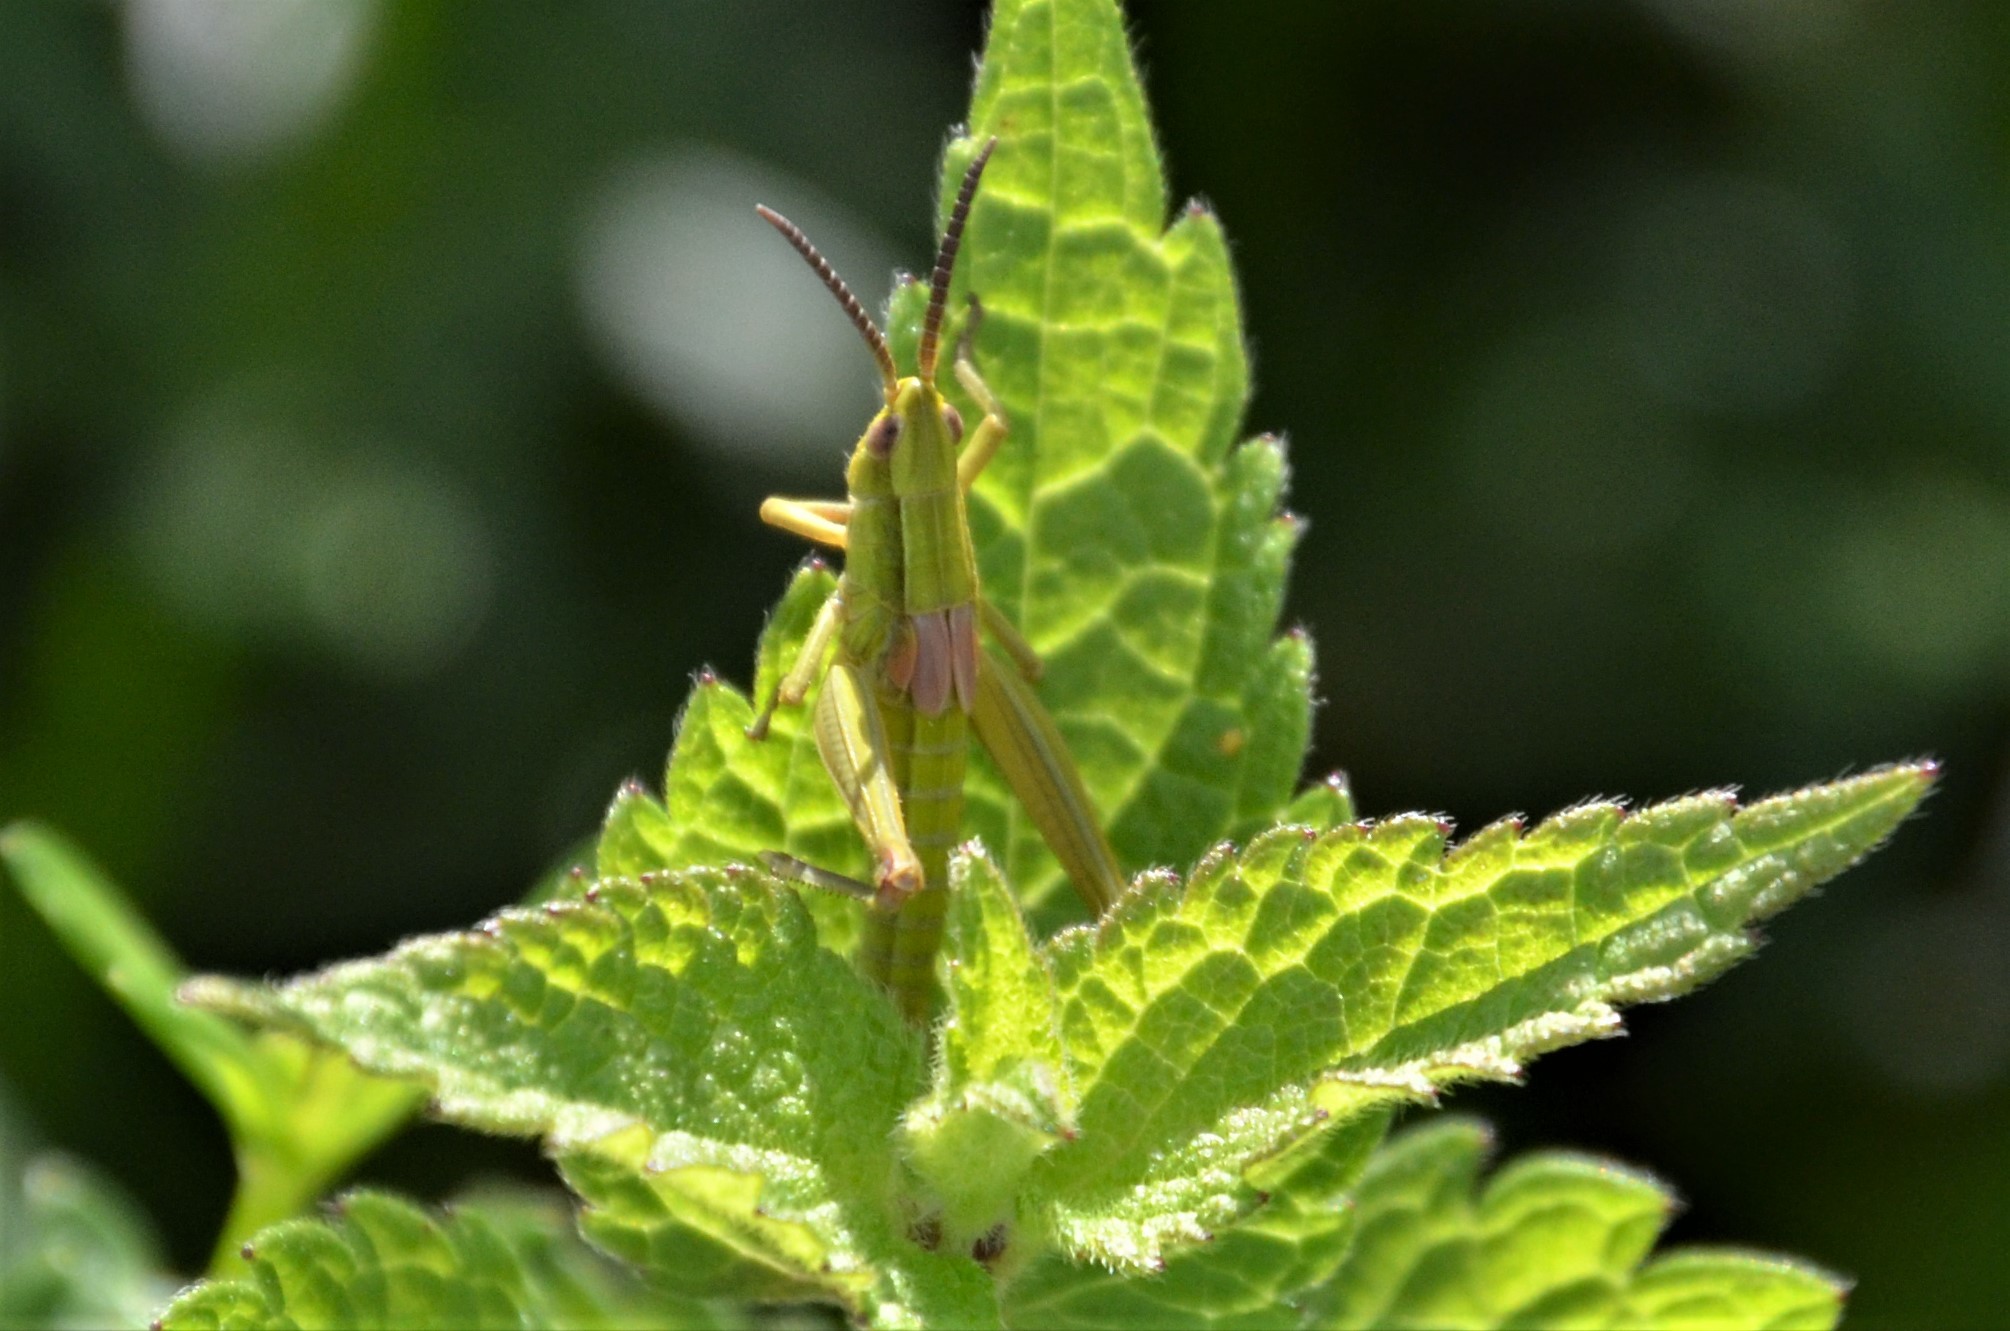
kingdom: Animalia
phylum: Arthropoda
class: Insecta
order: Orthoptera
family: Acrididae
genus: Euthystira
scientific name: Euthystira brachyptera
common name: Small gold grasshopper
